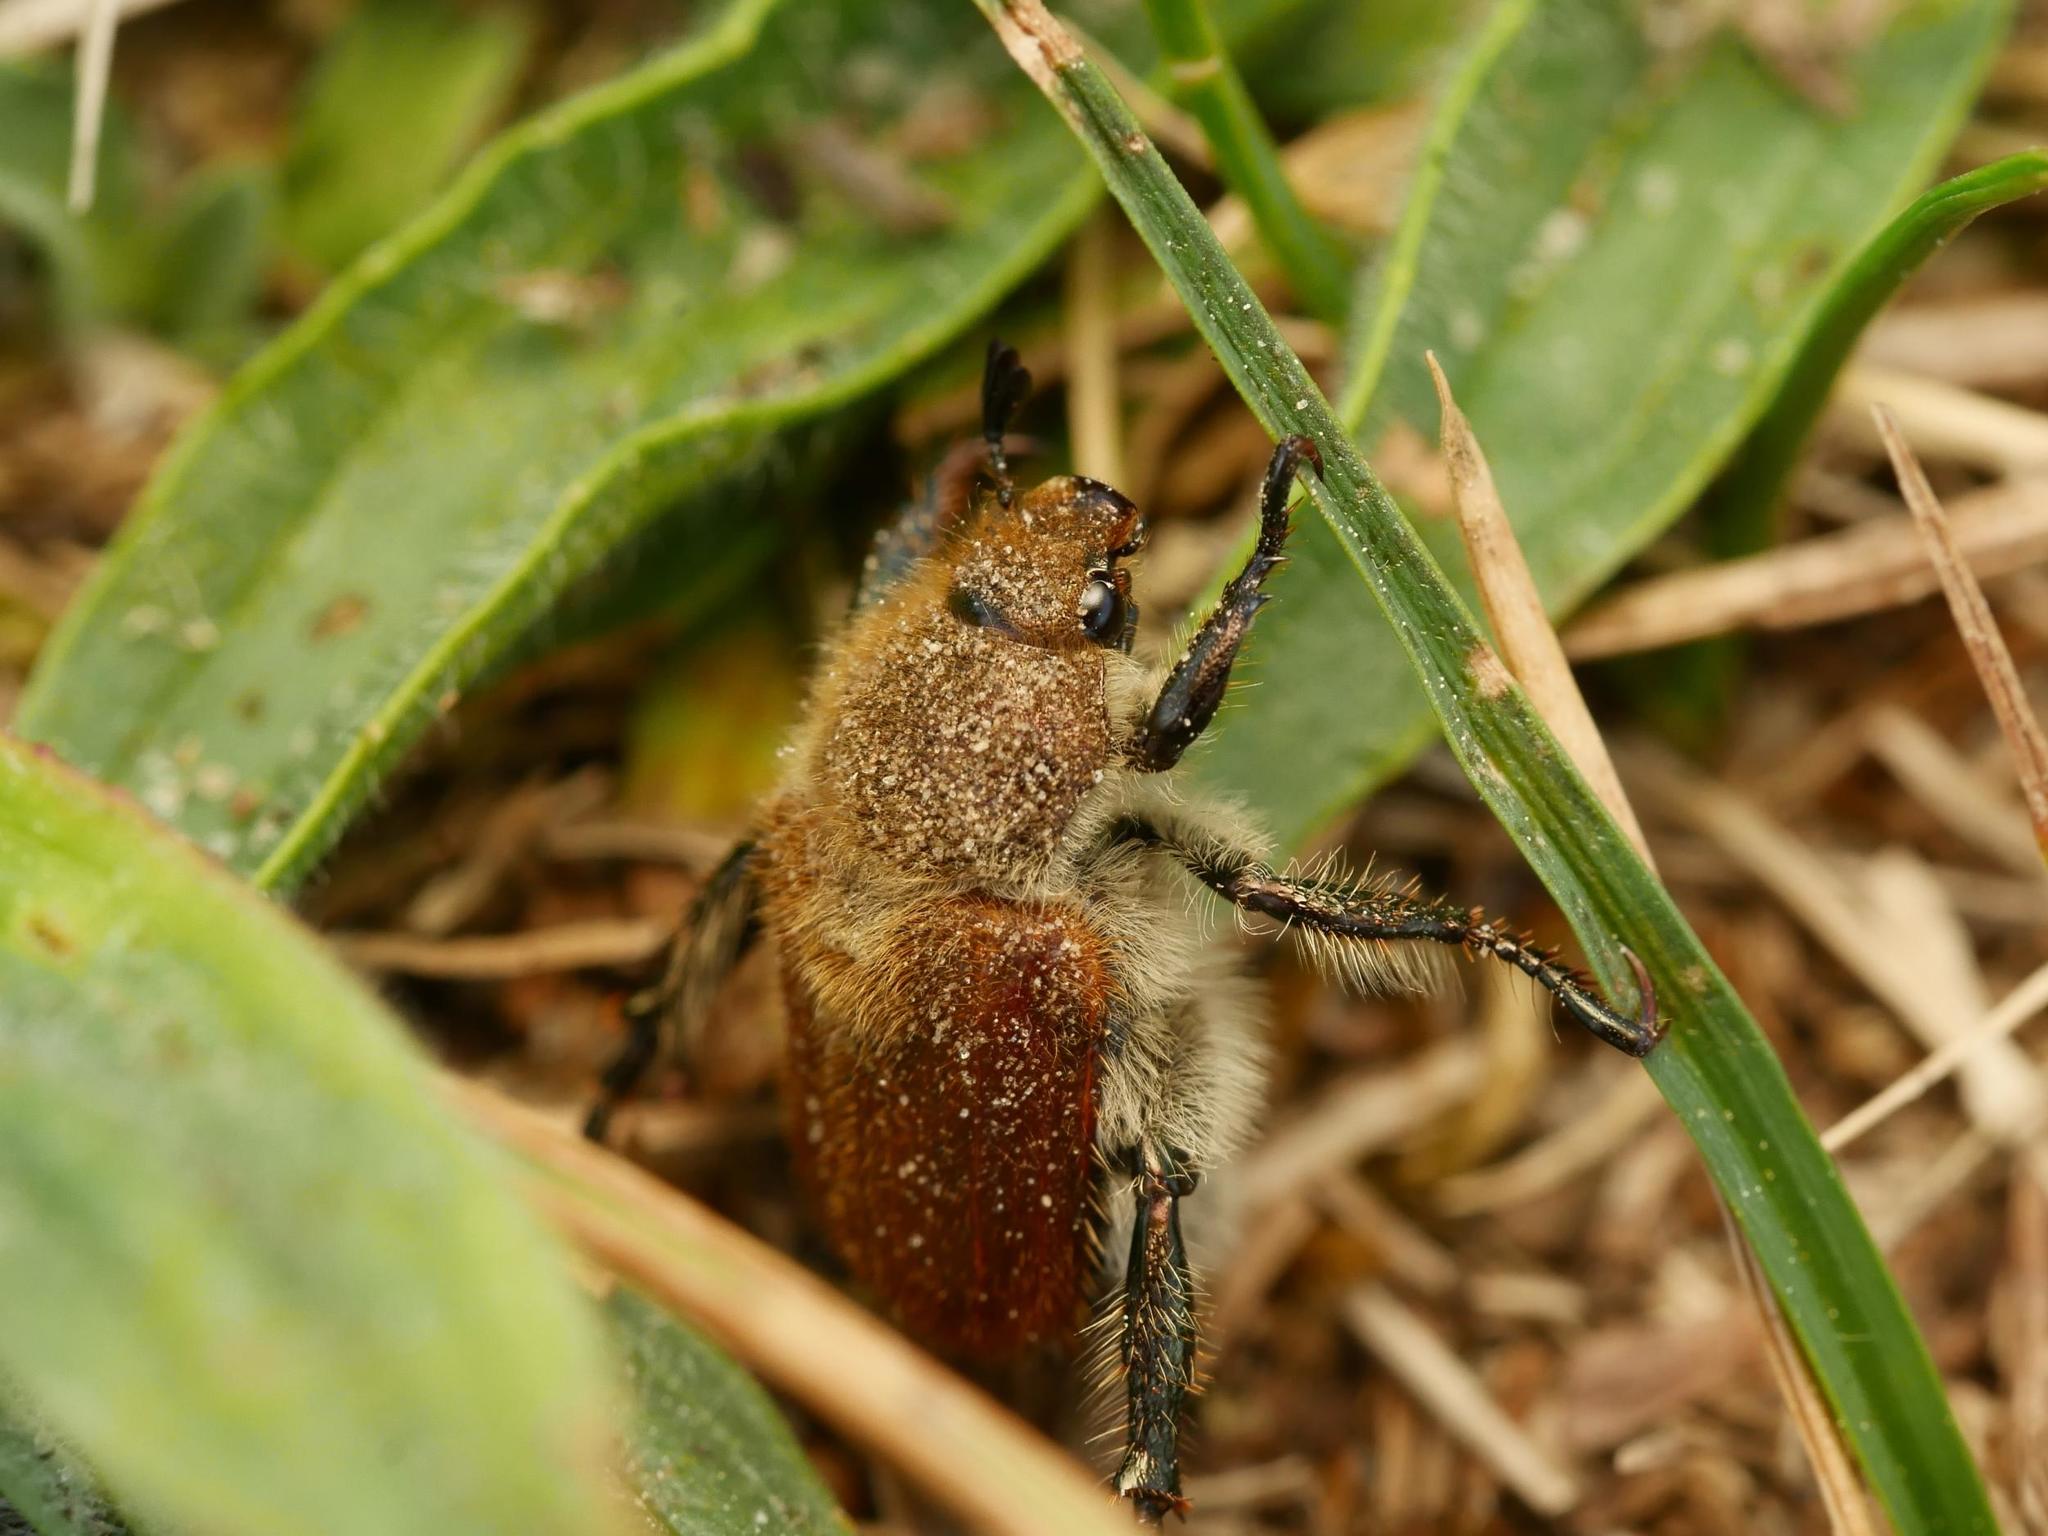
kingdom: Animalia
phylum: Arthropoda
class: Insecta
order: Coleoptera
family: Scarabaeidae
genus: Chaetopteroplia
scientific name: Chaetopteroplia segetum
